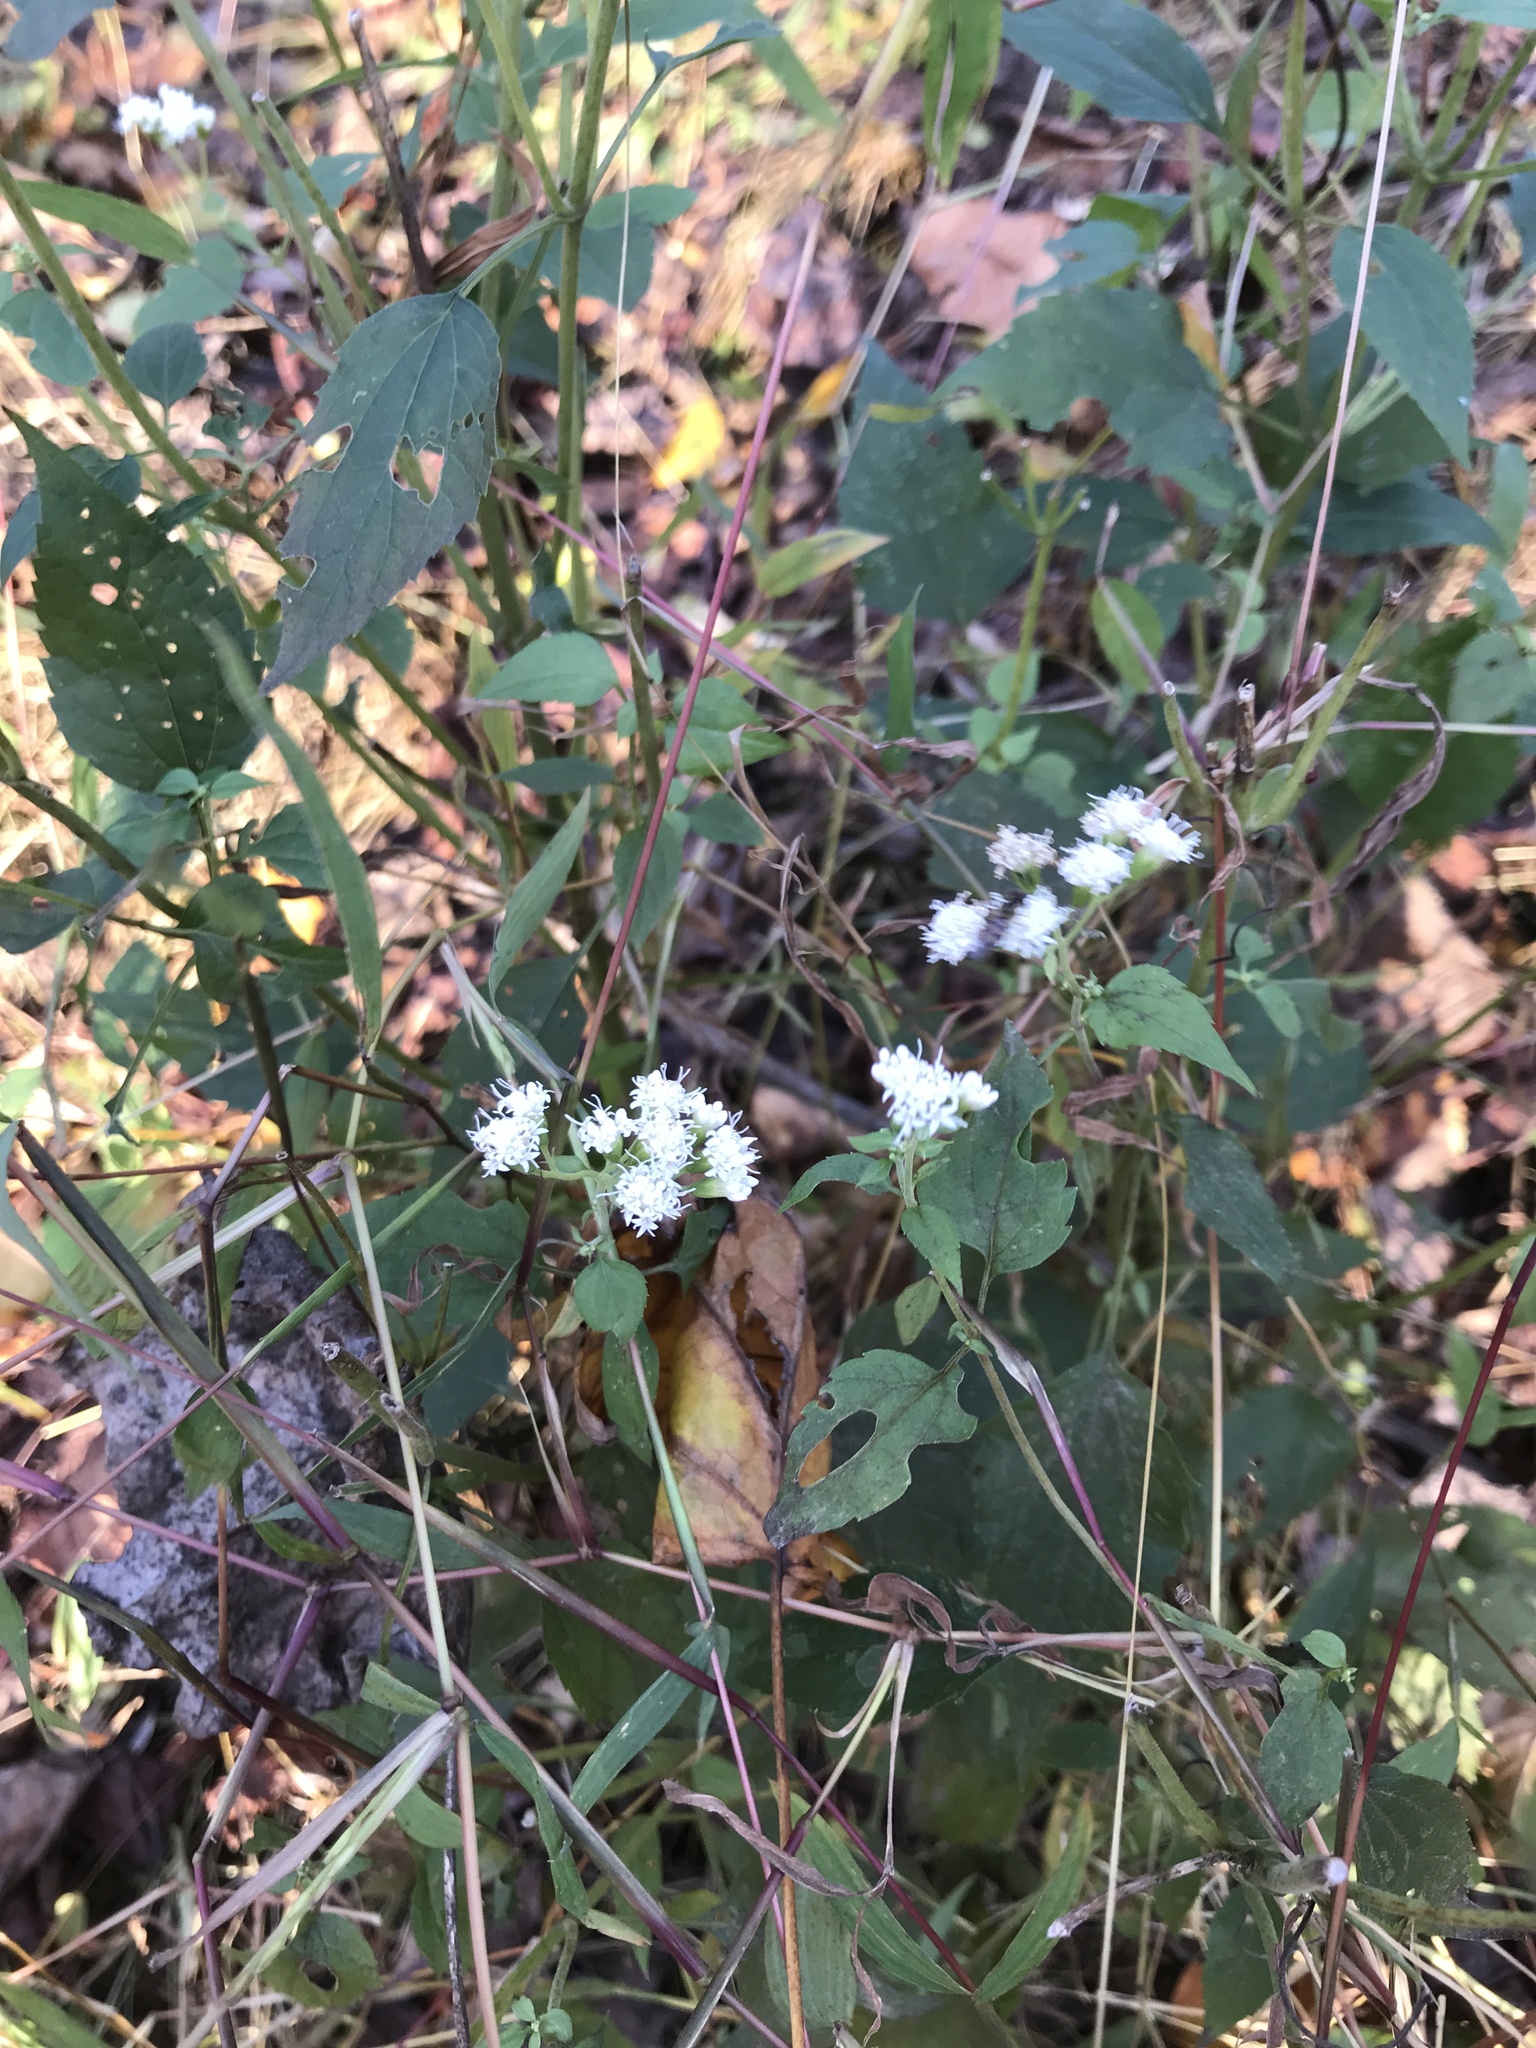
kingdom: Plantae
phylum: Tracheophyta
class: Magnoliopsida
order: Asterales
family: Asteraceae
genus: Ageratina
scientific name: Ageratina altissima
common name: White snakeroot
